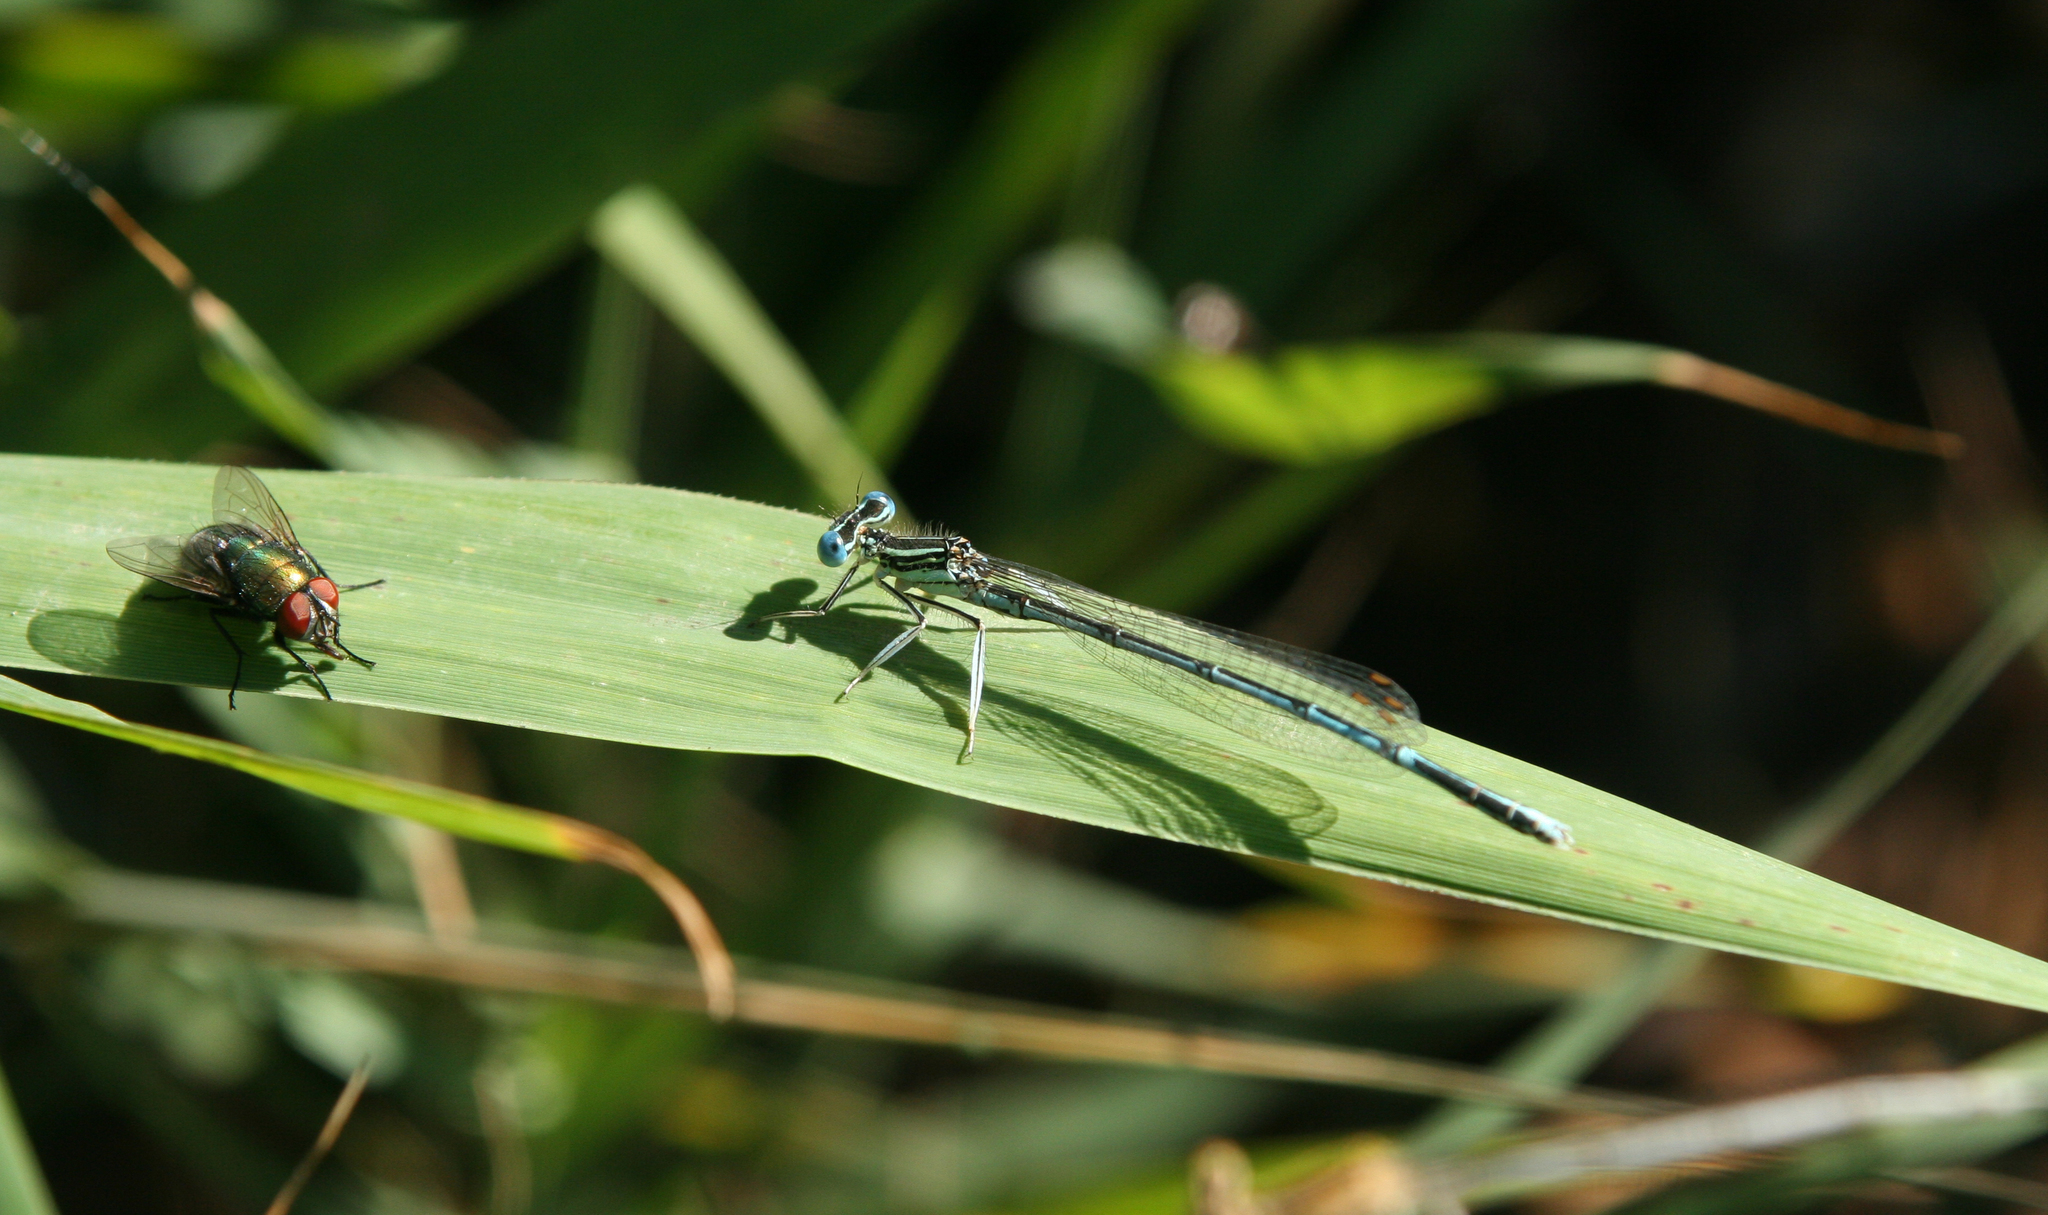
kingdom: Animalia
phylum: Arthropoda
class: Insecta
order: Odonata
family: Platycnemididae
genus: Platycnemis
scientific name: Platycnemis pennipes
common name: White-legged damselfly
